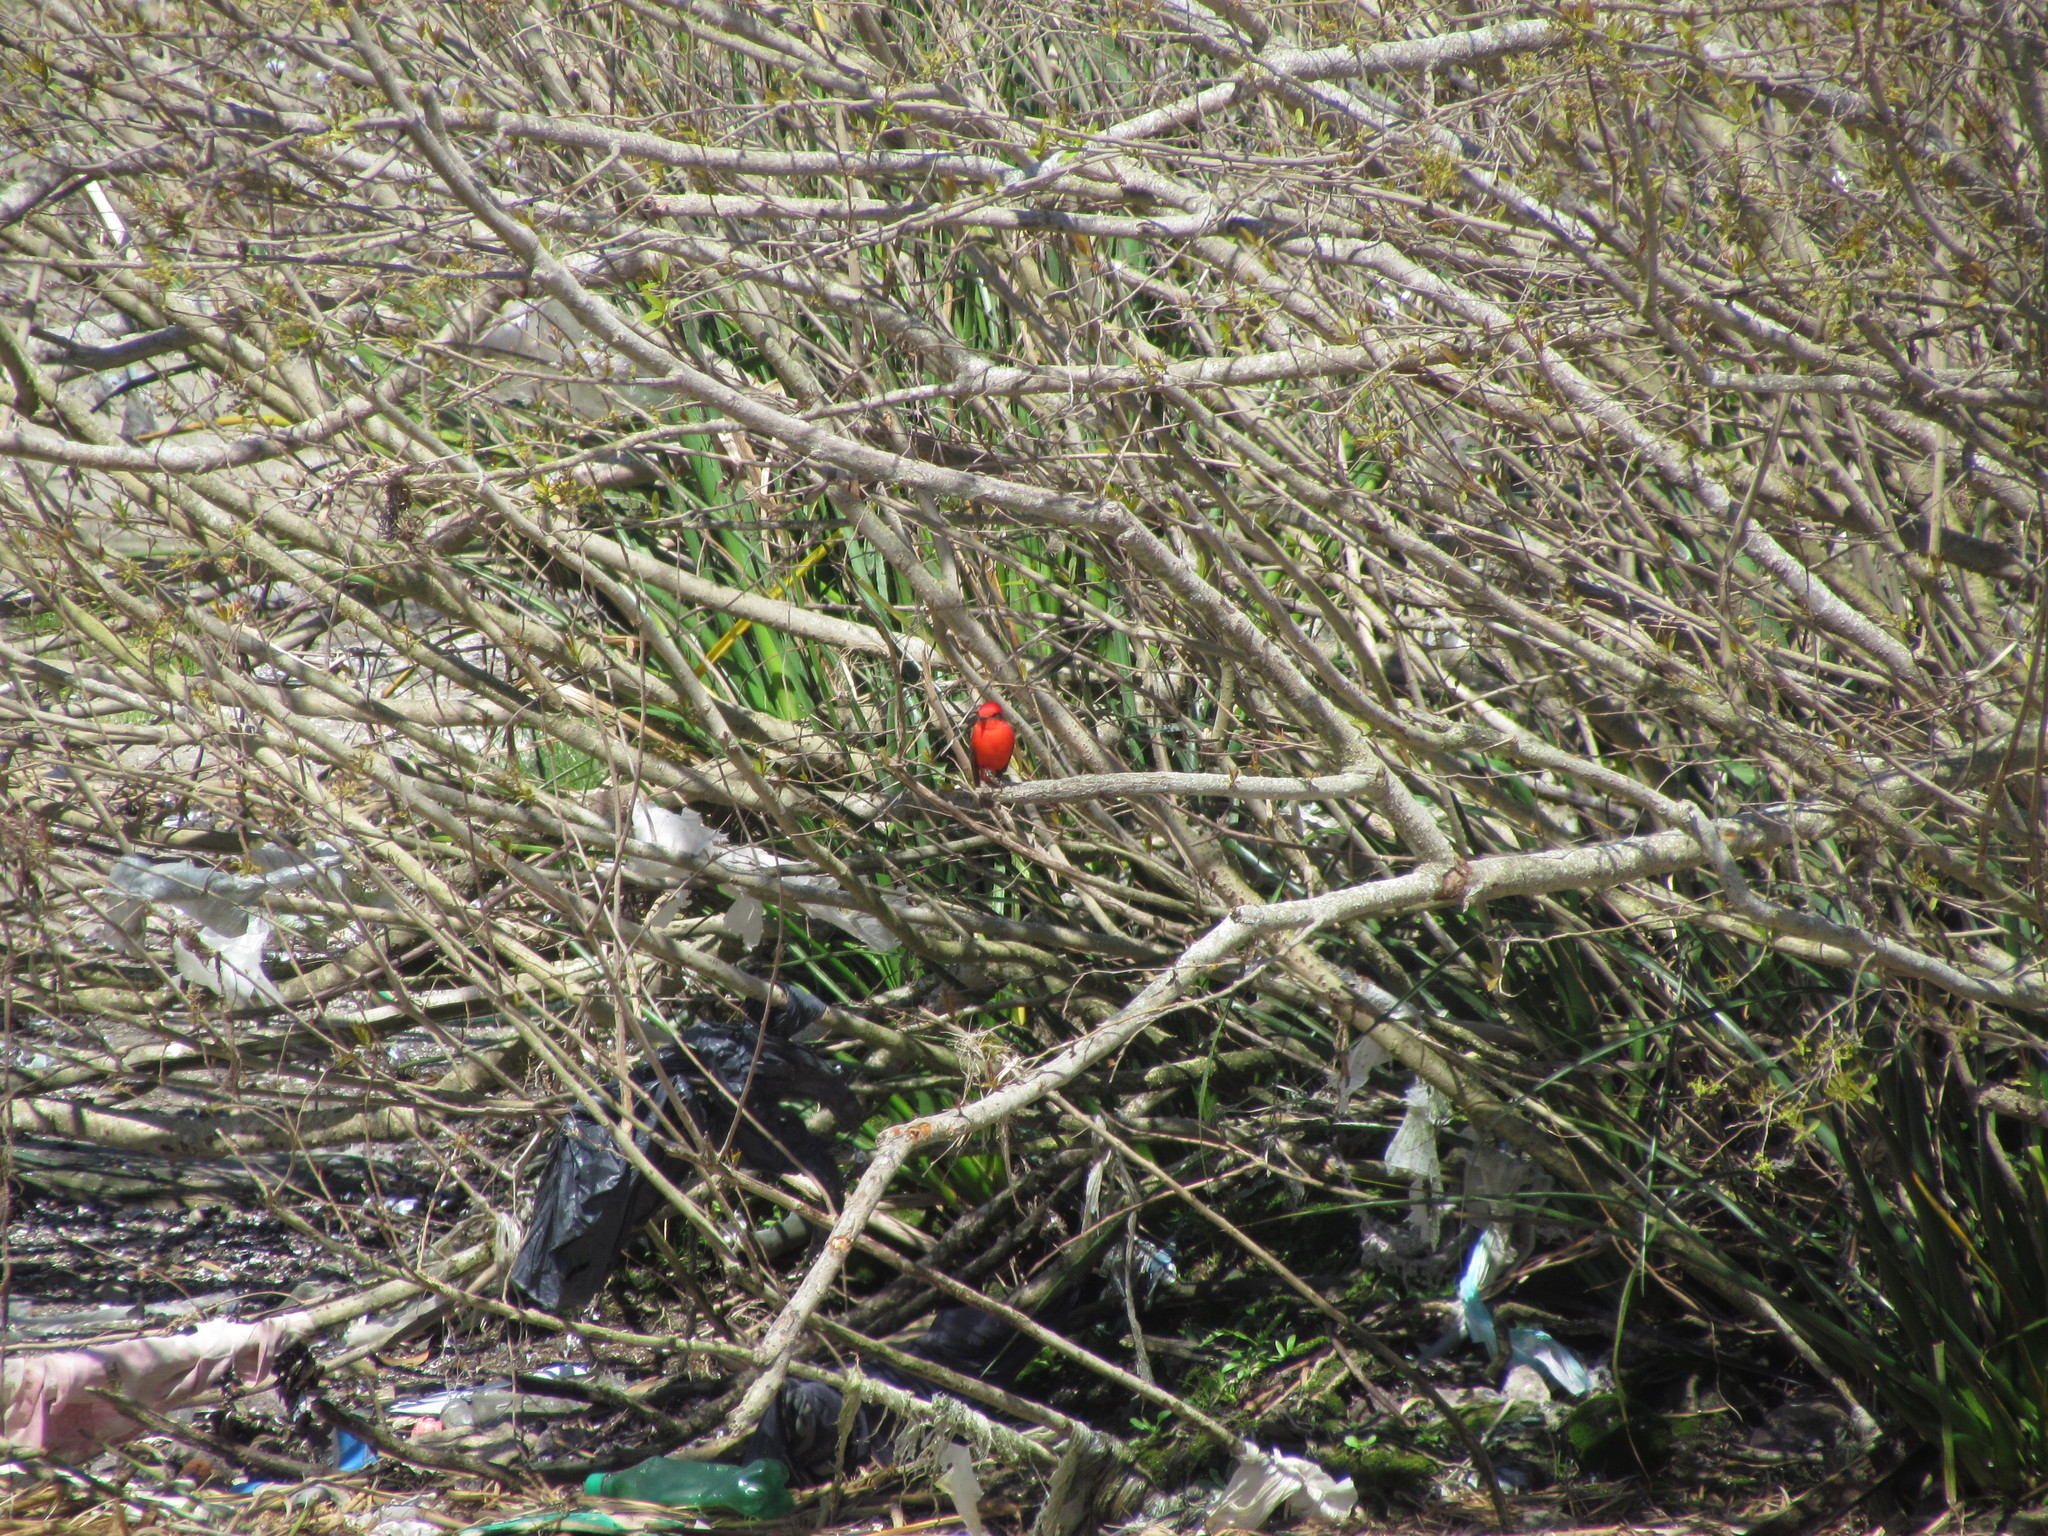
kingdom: Animalia
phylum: Chordata
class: Aves
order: Passeriformes
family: Tyrannidae
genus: Pyrocephalus
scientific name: Pyrocephalus rubinus
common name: Vermilion flycatcher
